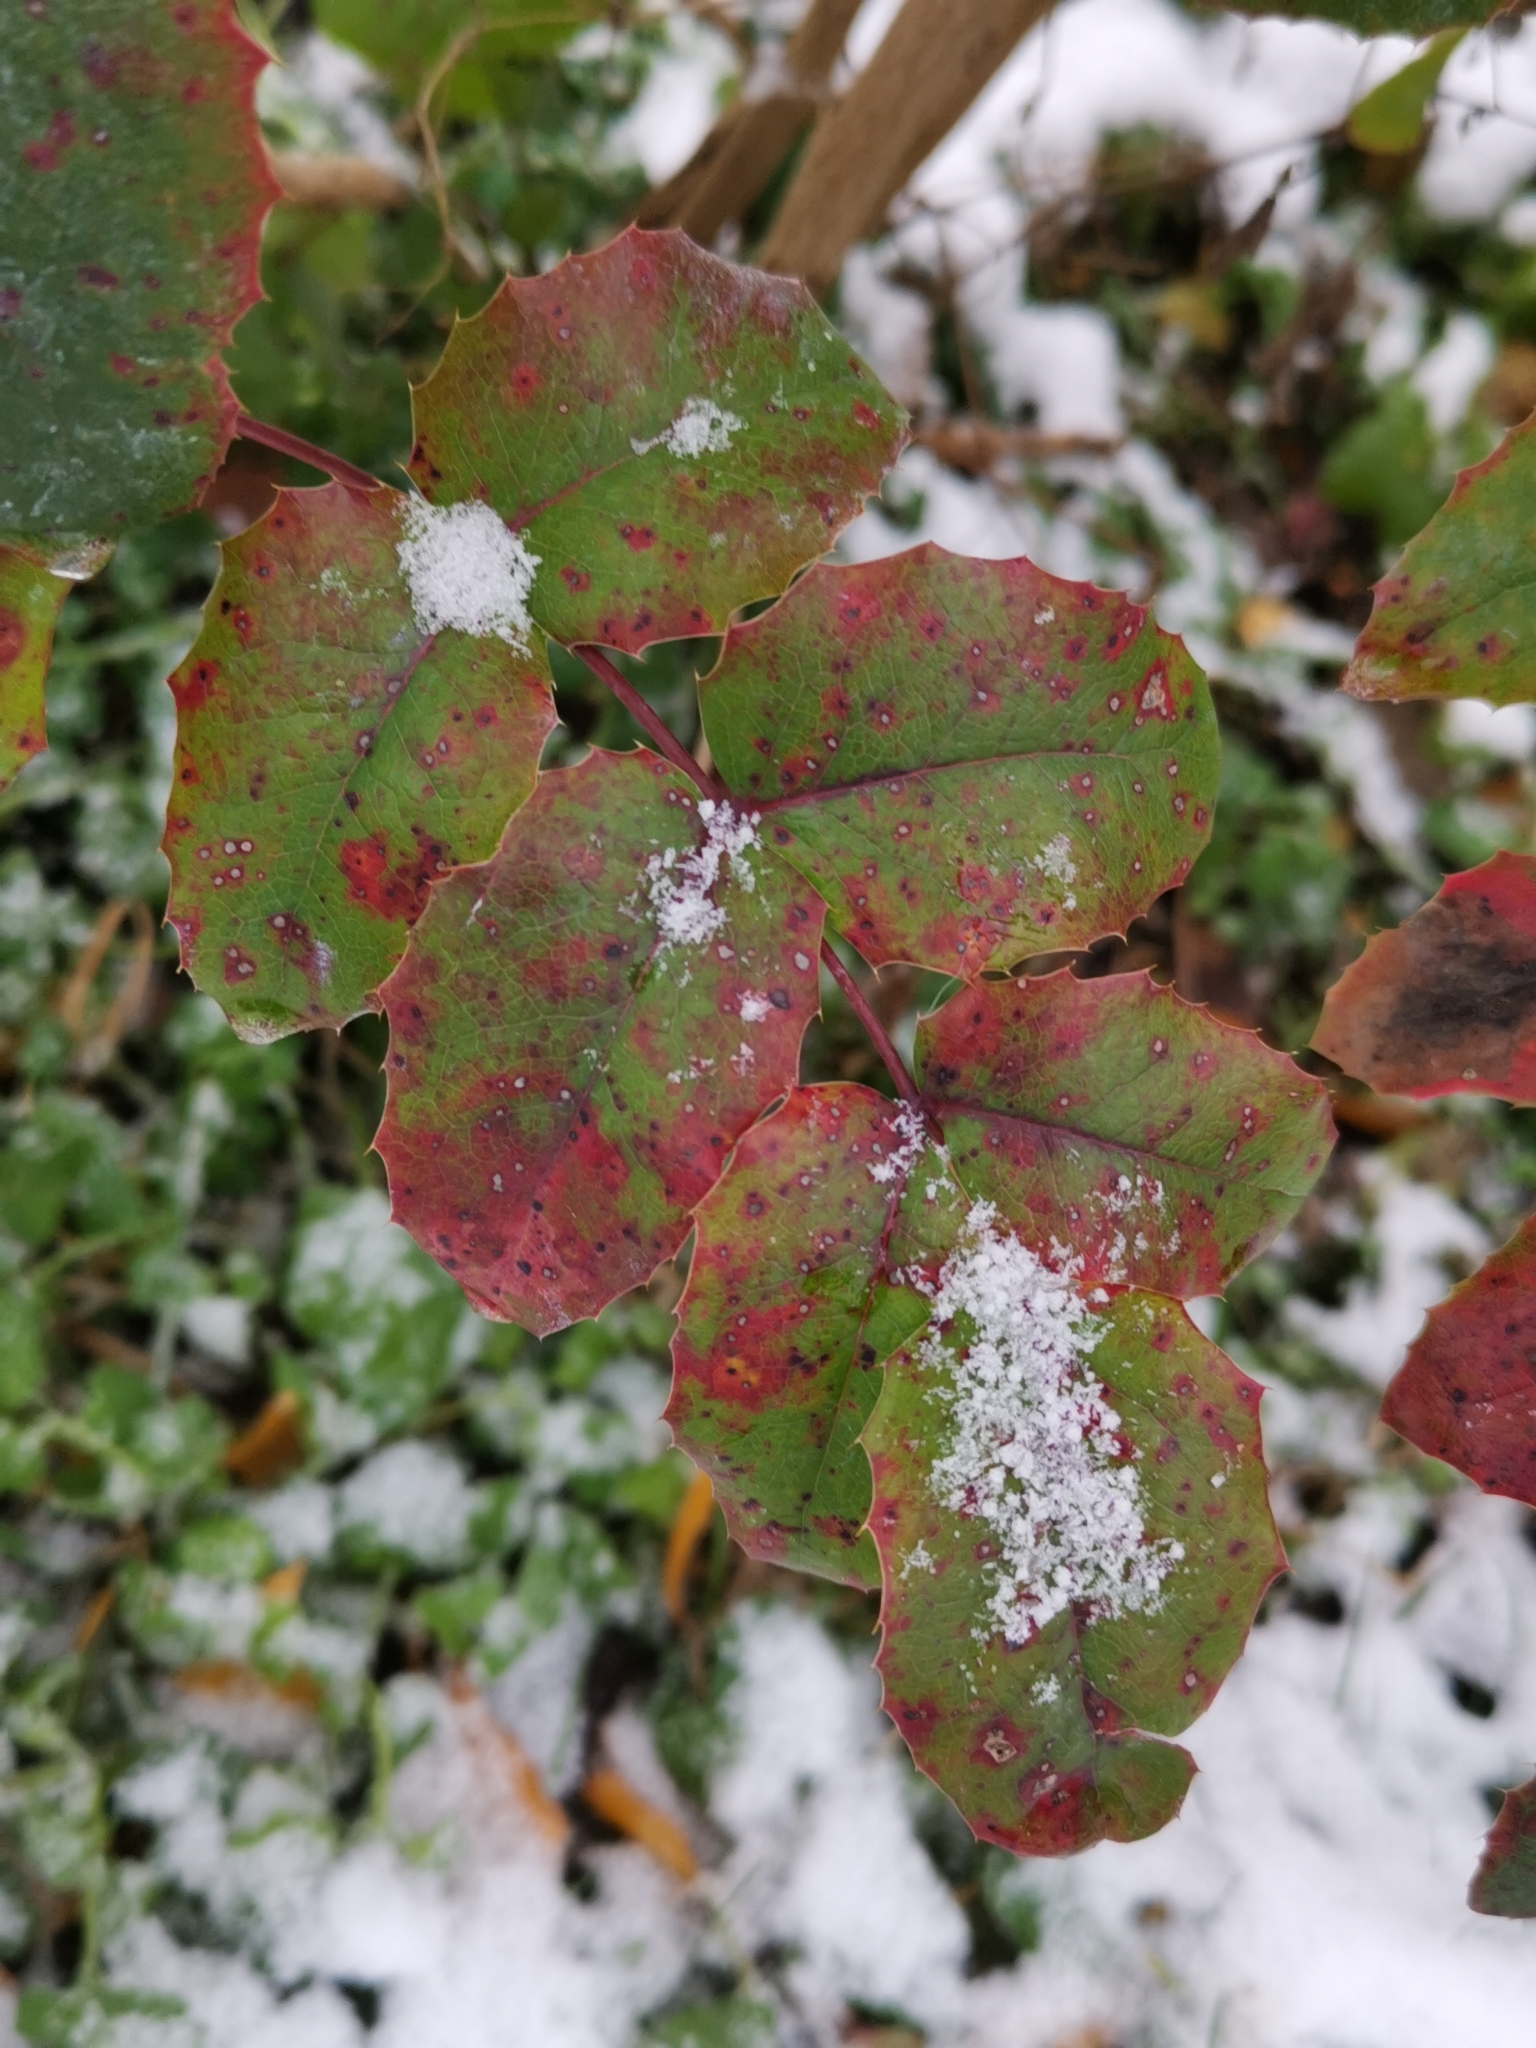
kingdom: Plantae
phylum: Tracheophyta
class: Magnoliopsida
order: Ranunculales
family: Berberidaceae
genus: Mahonia
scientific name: Mahonia aquifolium
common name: Oregon-grape
